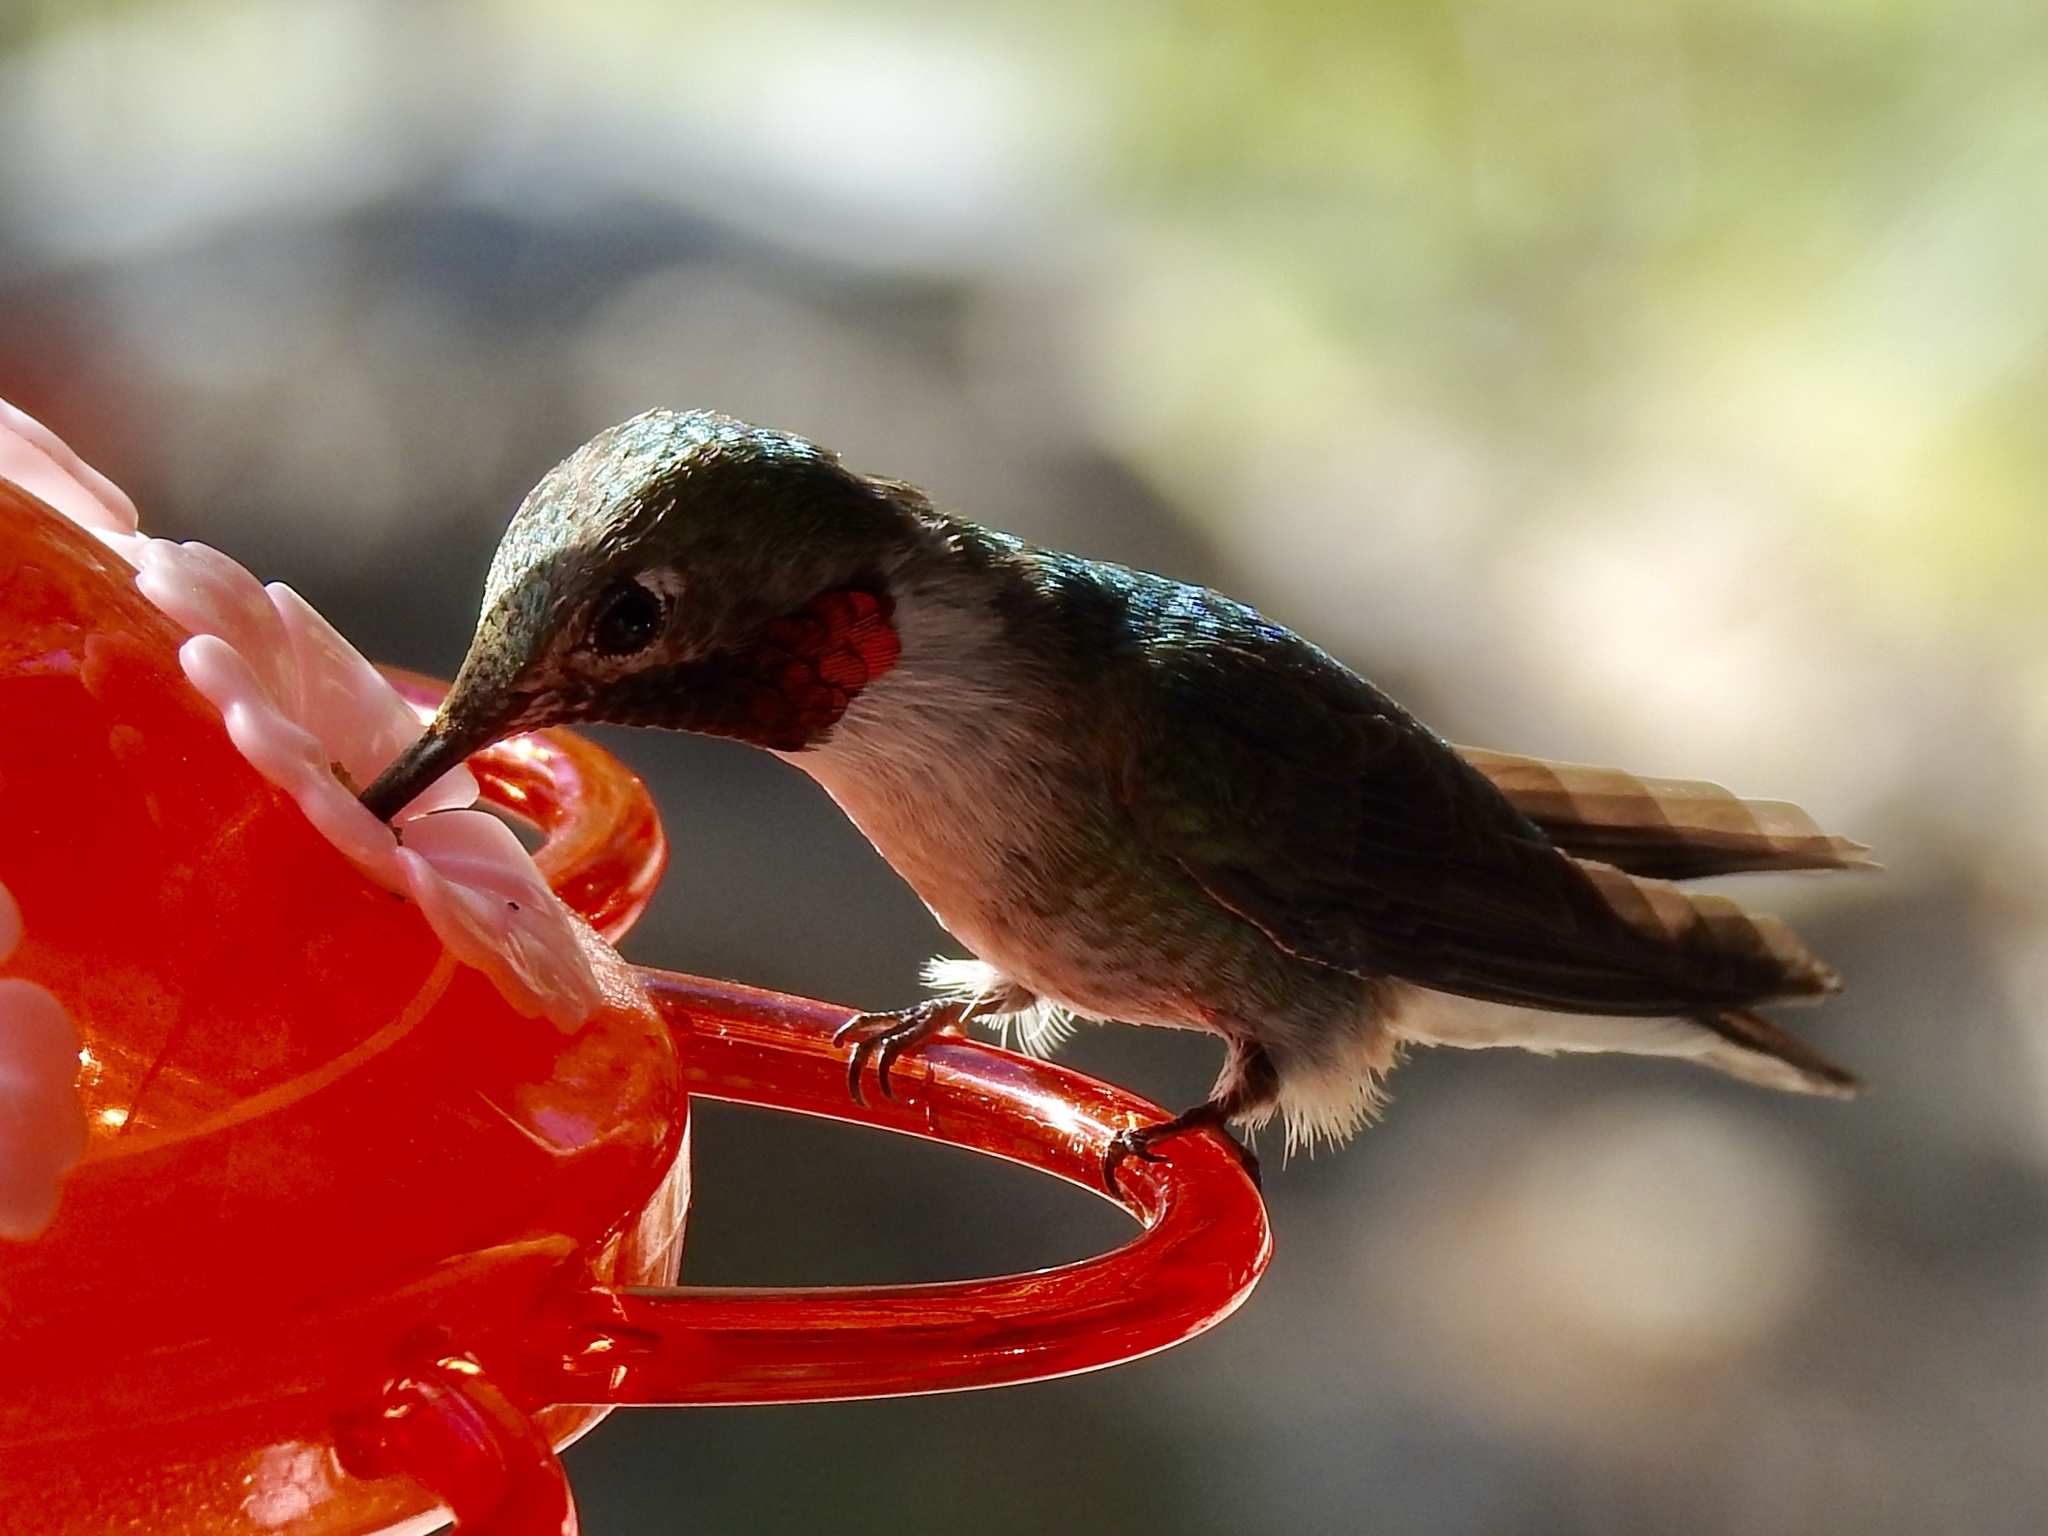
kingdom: Animalia
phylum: Chordata
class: Aves
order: Apodiformes
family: Trochilidae
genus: Selasphorus
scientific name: Selasphorus platycercus
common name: Broad-tailed hummingbird
